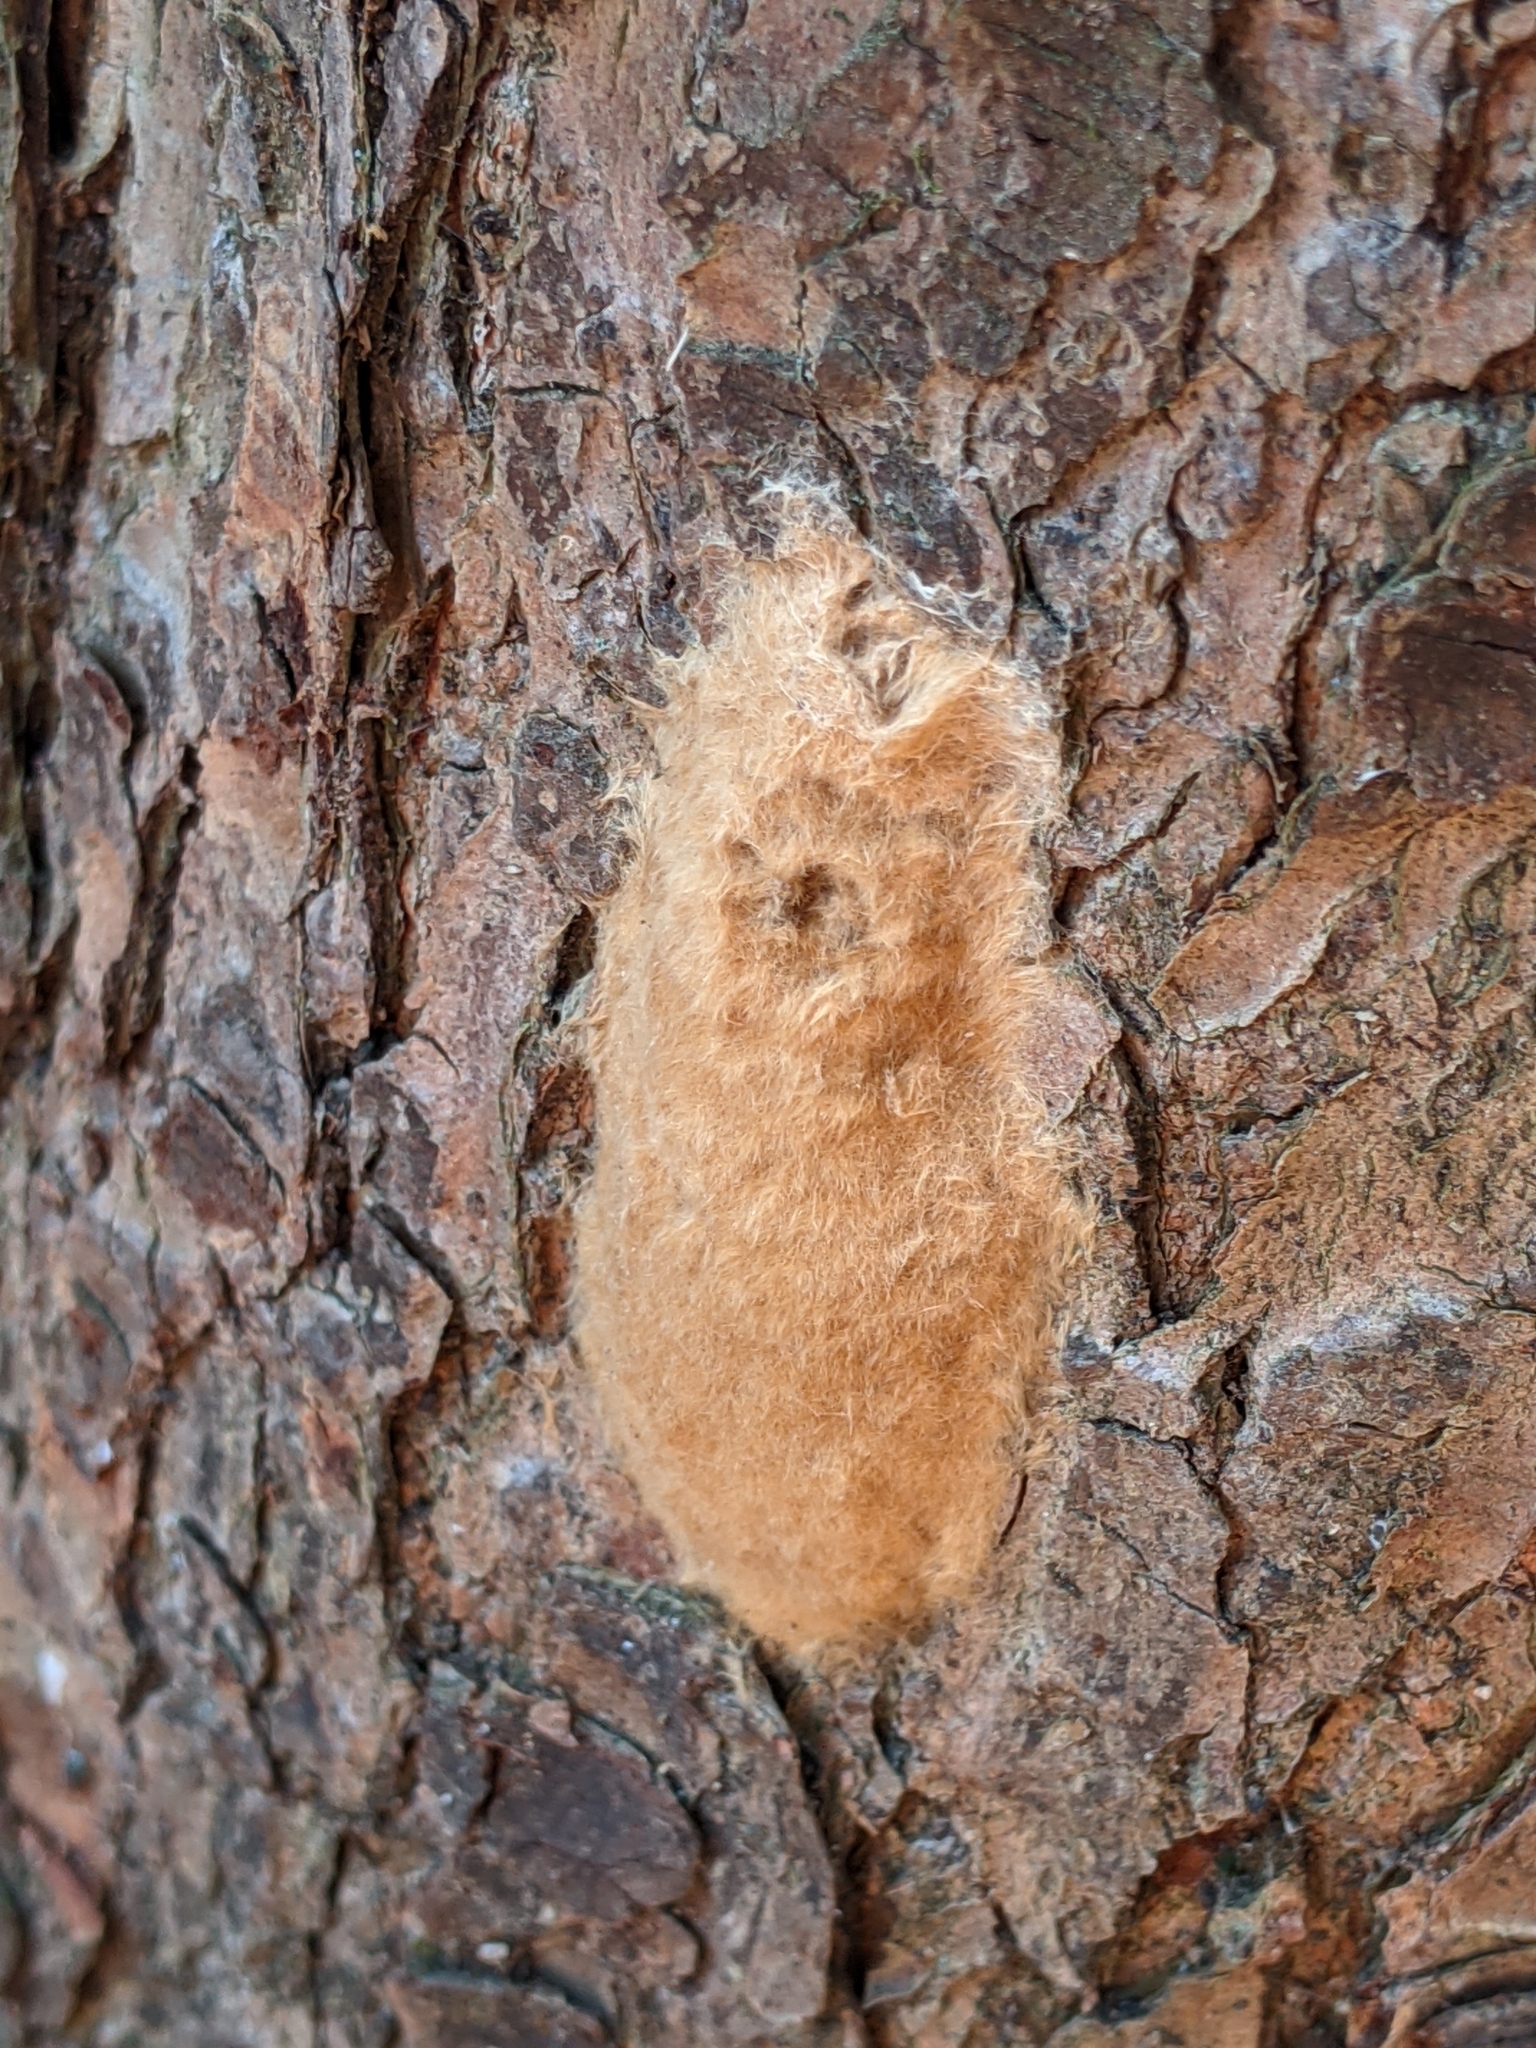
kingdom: Animalia
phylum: Arthropoda
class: Insecta
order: Lepidoptera
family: Erebidae
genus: Lymantria
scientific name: Lymantria dispar
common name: Gypsy moth
